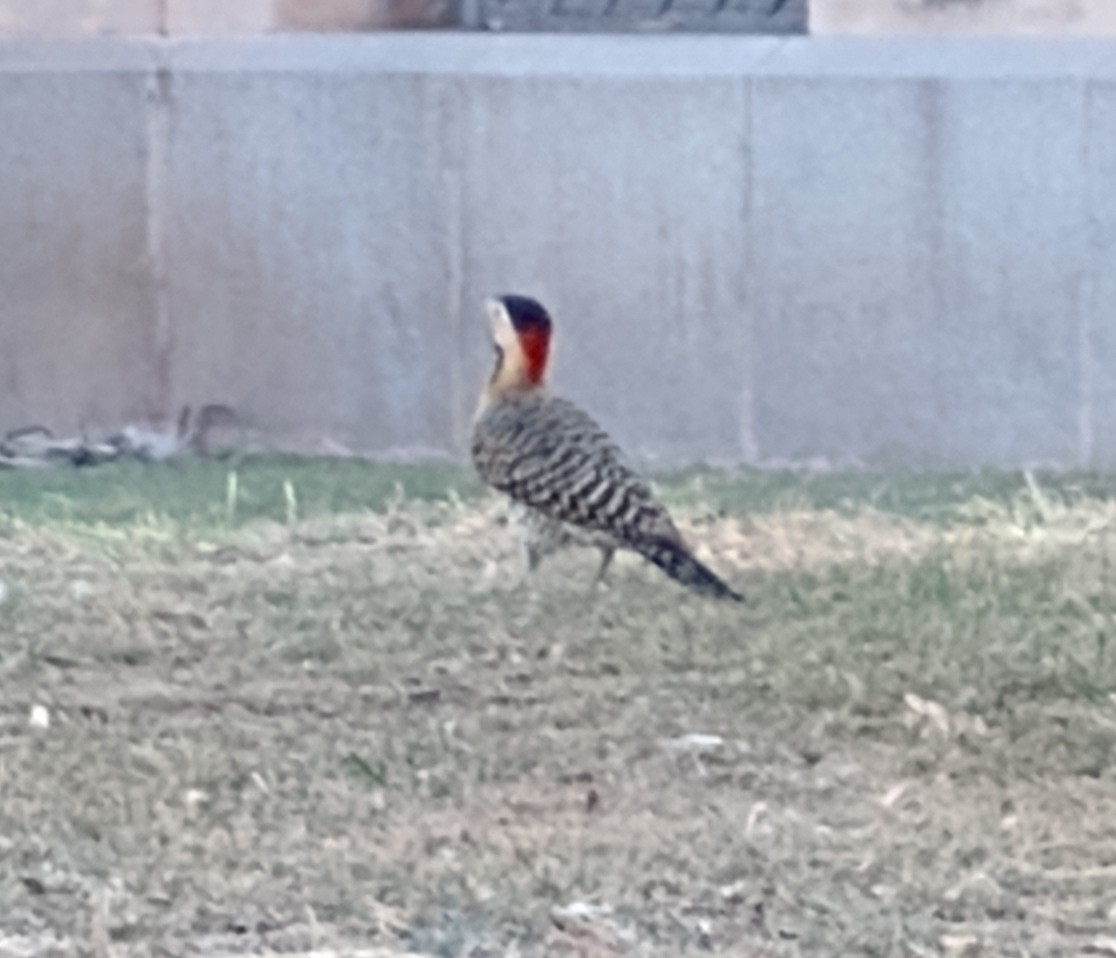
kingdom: Animalia
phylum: Chordata
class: Aves
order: Piciformes
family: Picidae
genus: Colaptes
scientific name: Colaptes melanochloros
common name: Green-barred woodpecker
